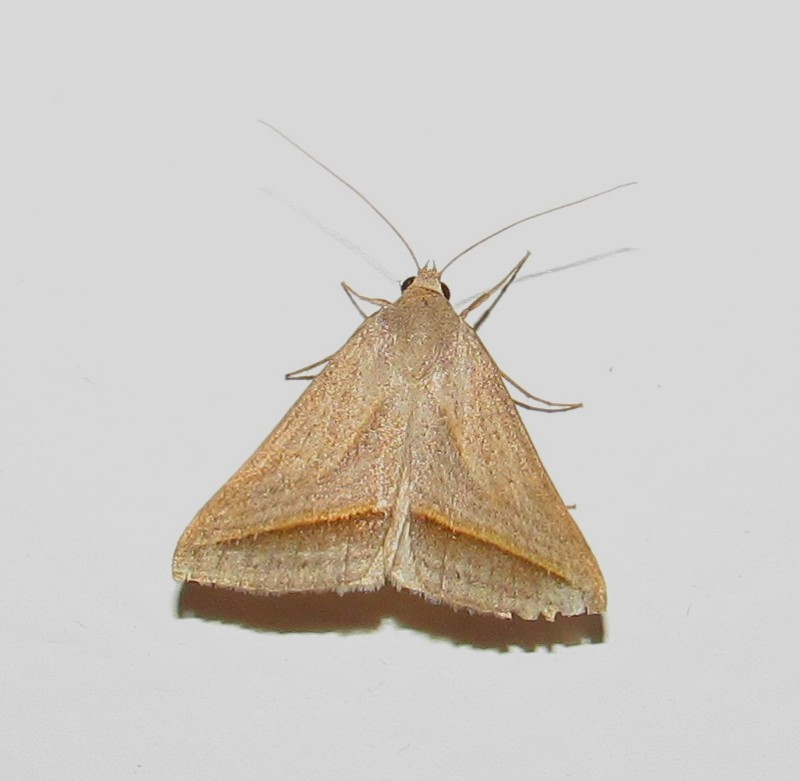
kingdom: Animalia
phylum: Arthropoda
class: Insecta
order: Lepidoptera
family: Erebidae
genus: Ptichodis
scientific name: Ptichodis dorsalis
